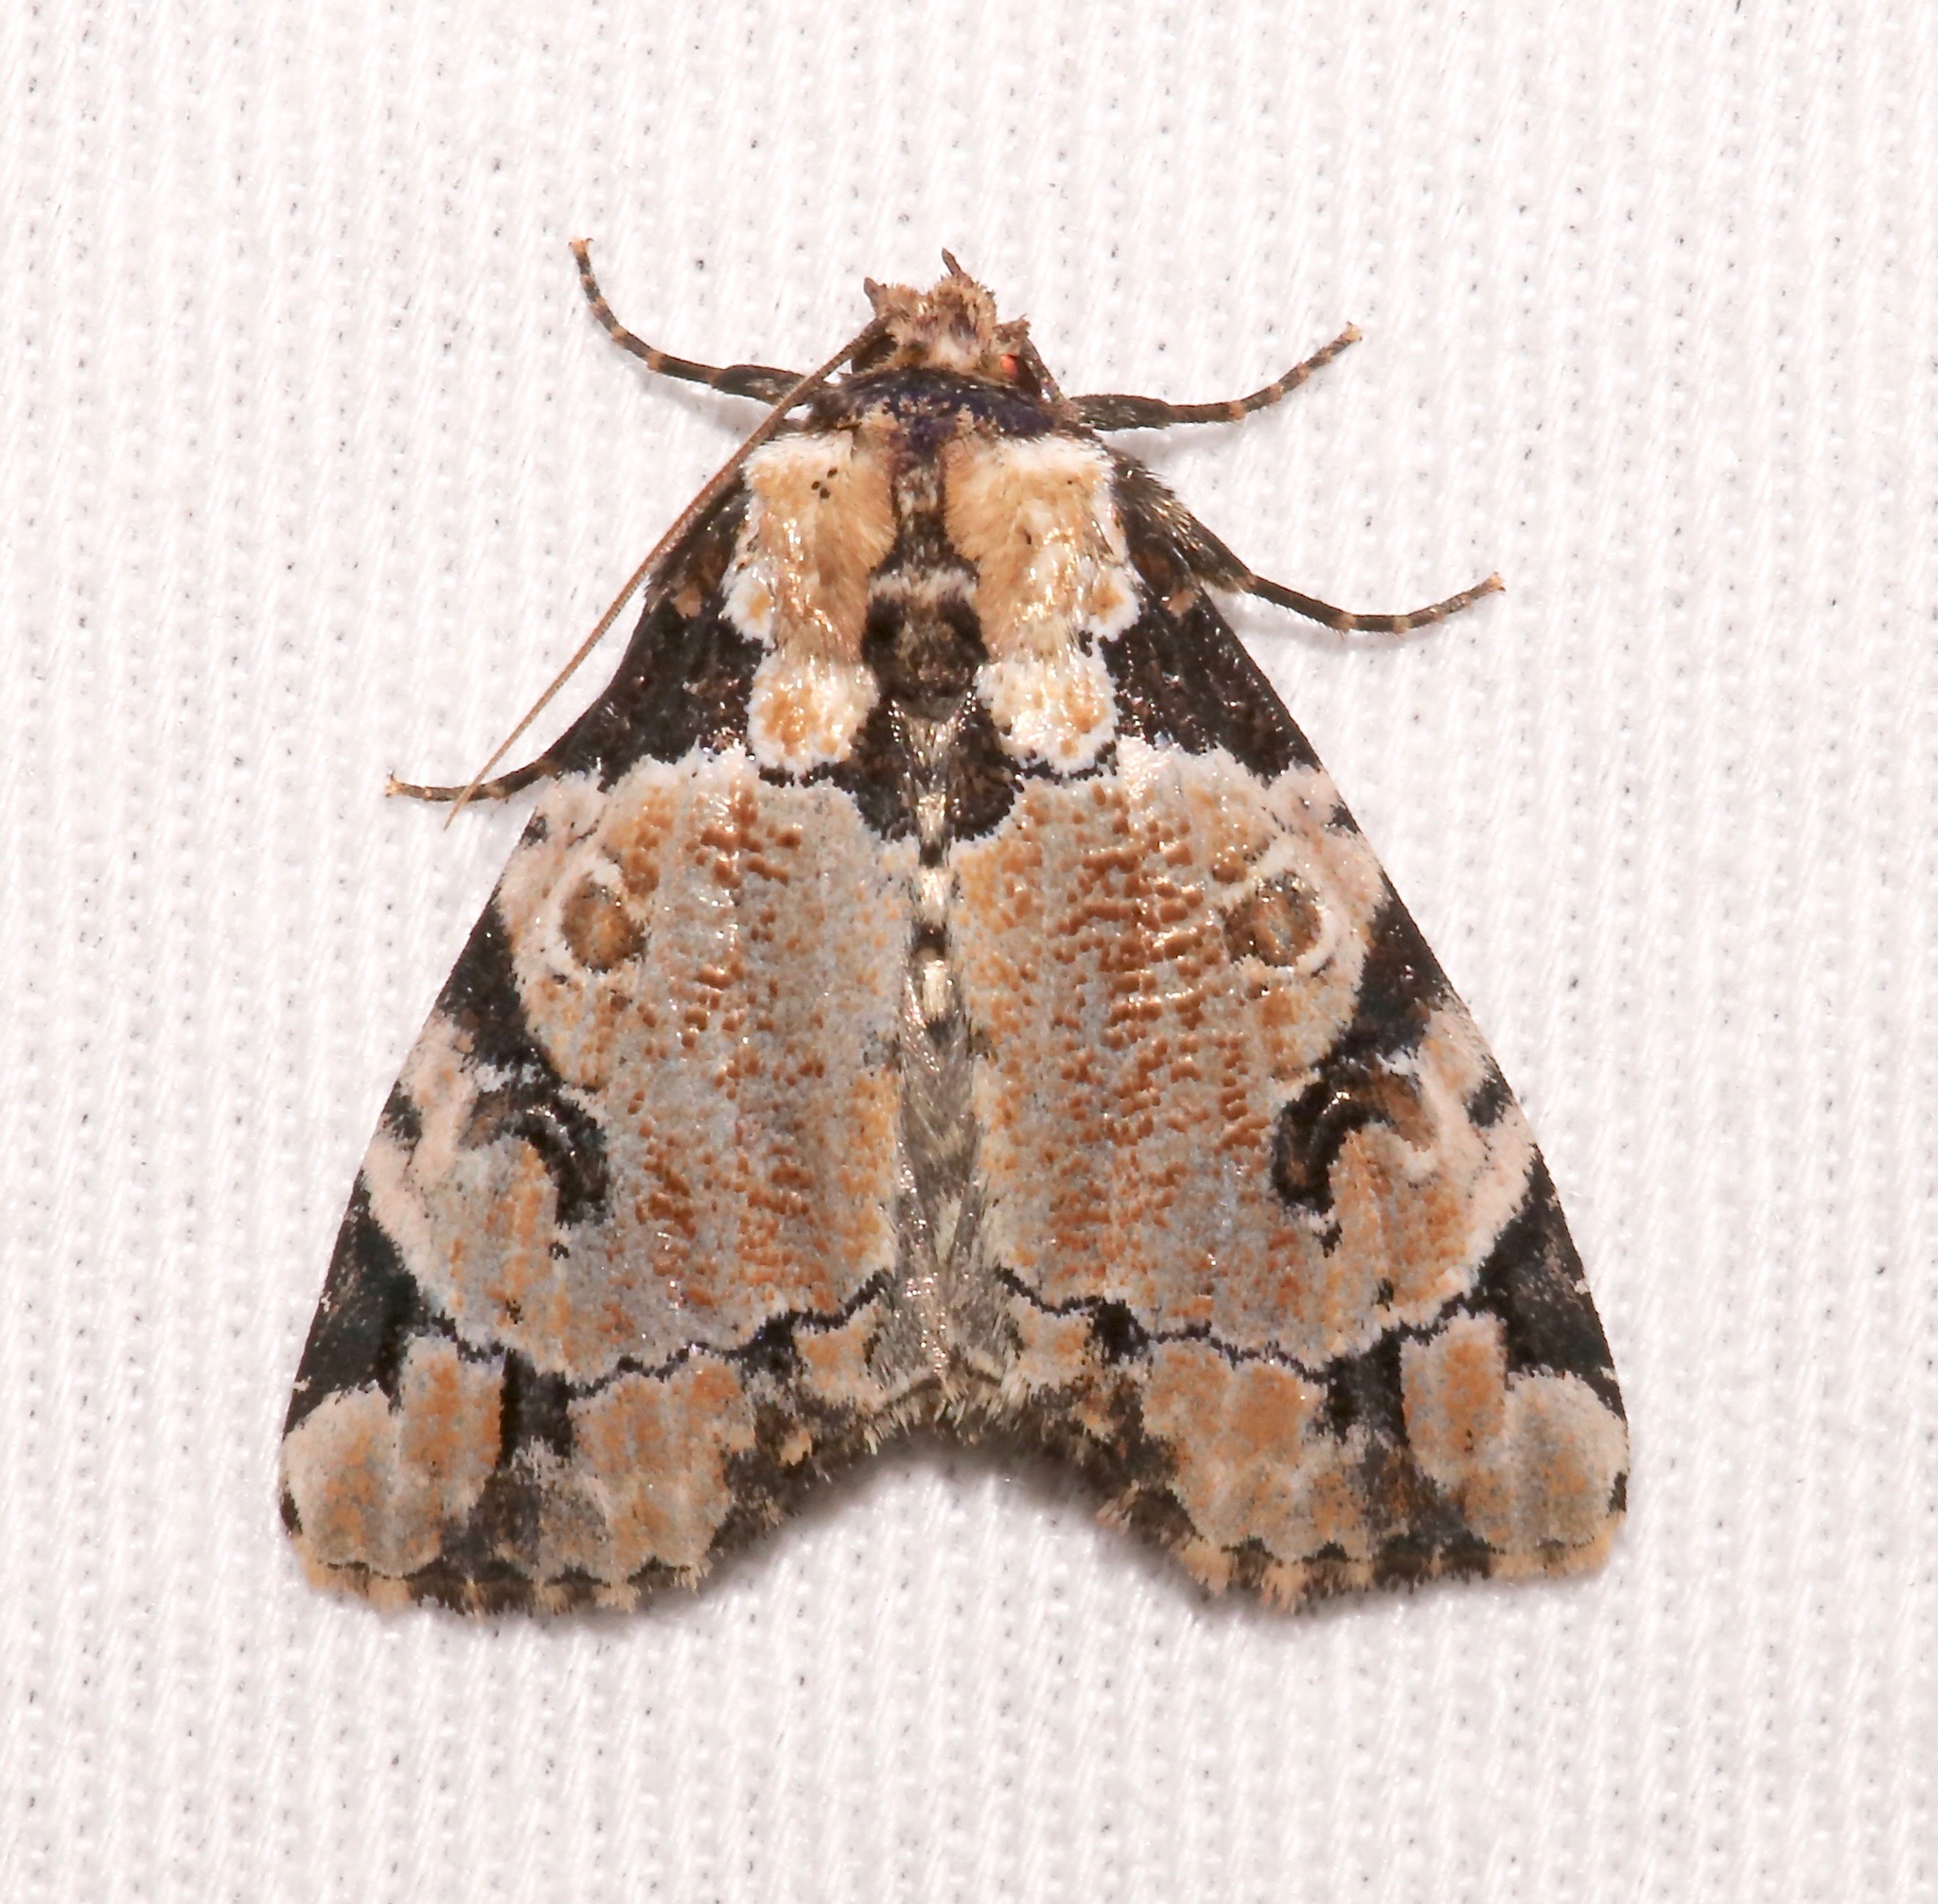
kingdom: Animalia
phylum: Arthropoda
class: Insecta
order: Lepidoptera
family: Noctuidae
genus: Stibaera
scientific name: Stibaera thyatiroides
